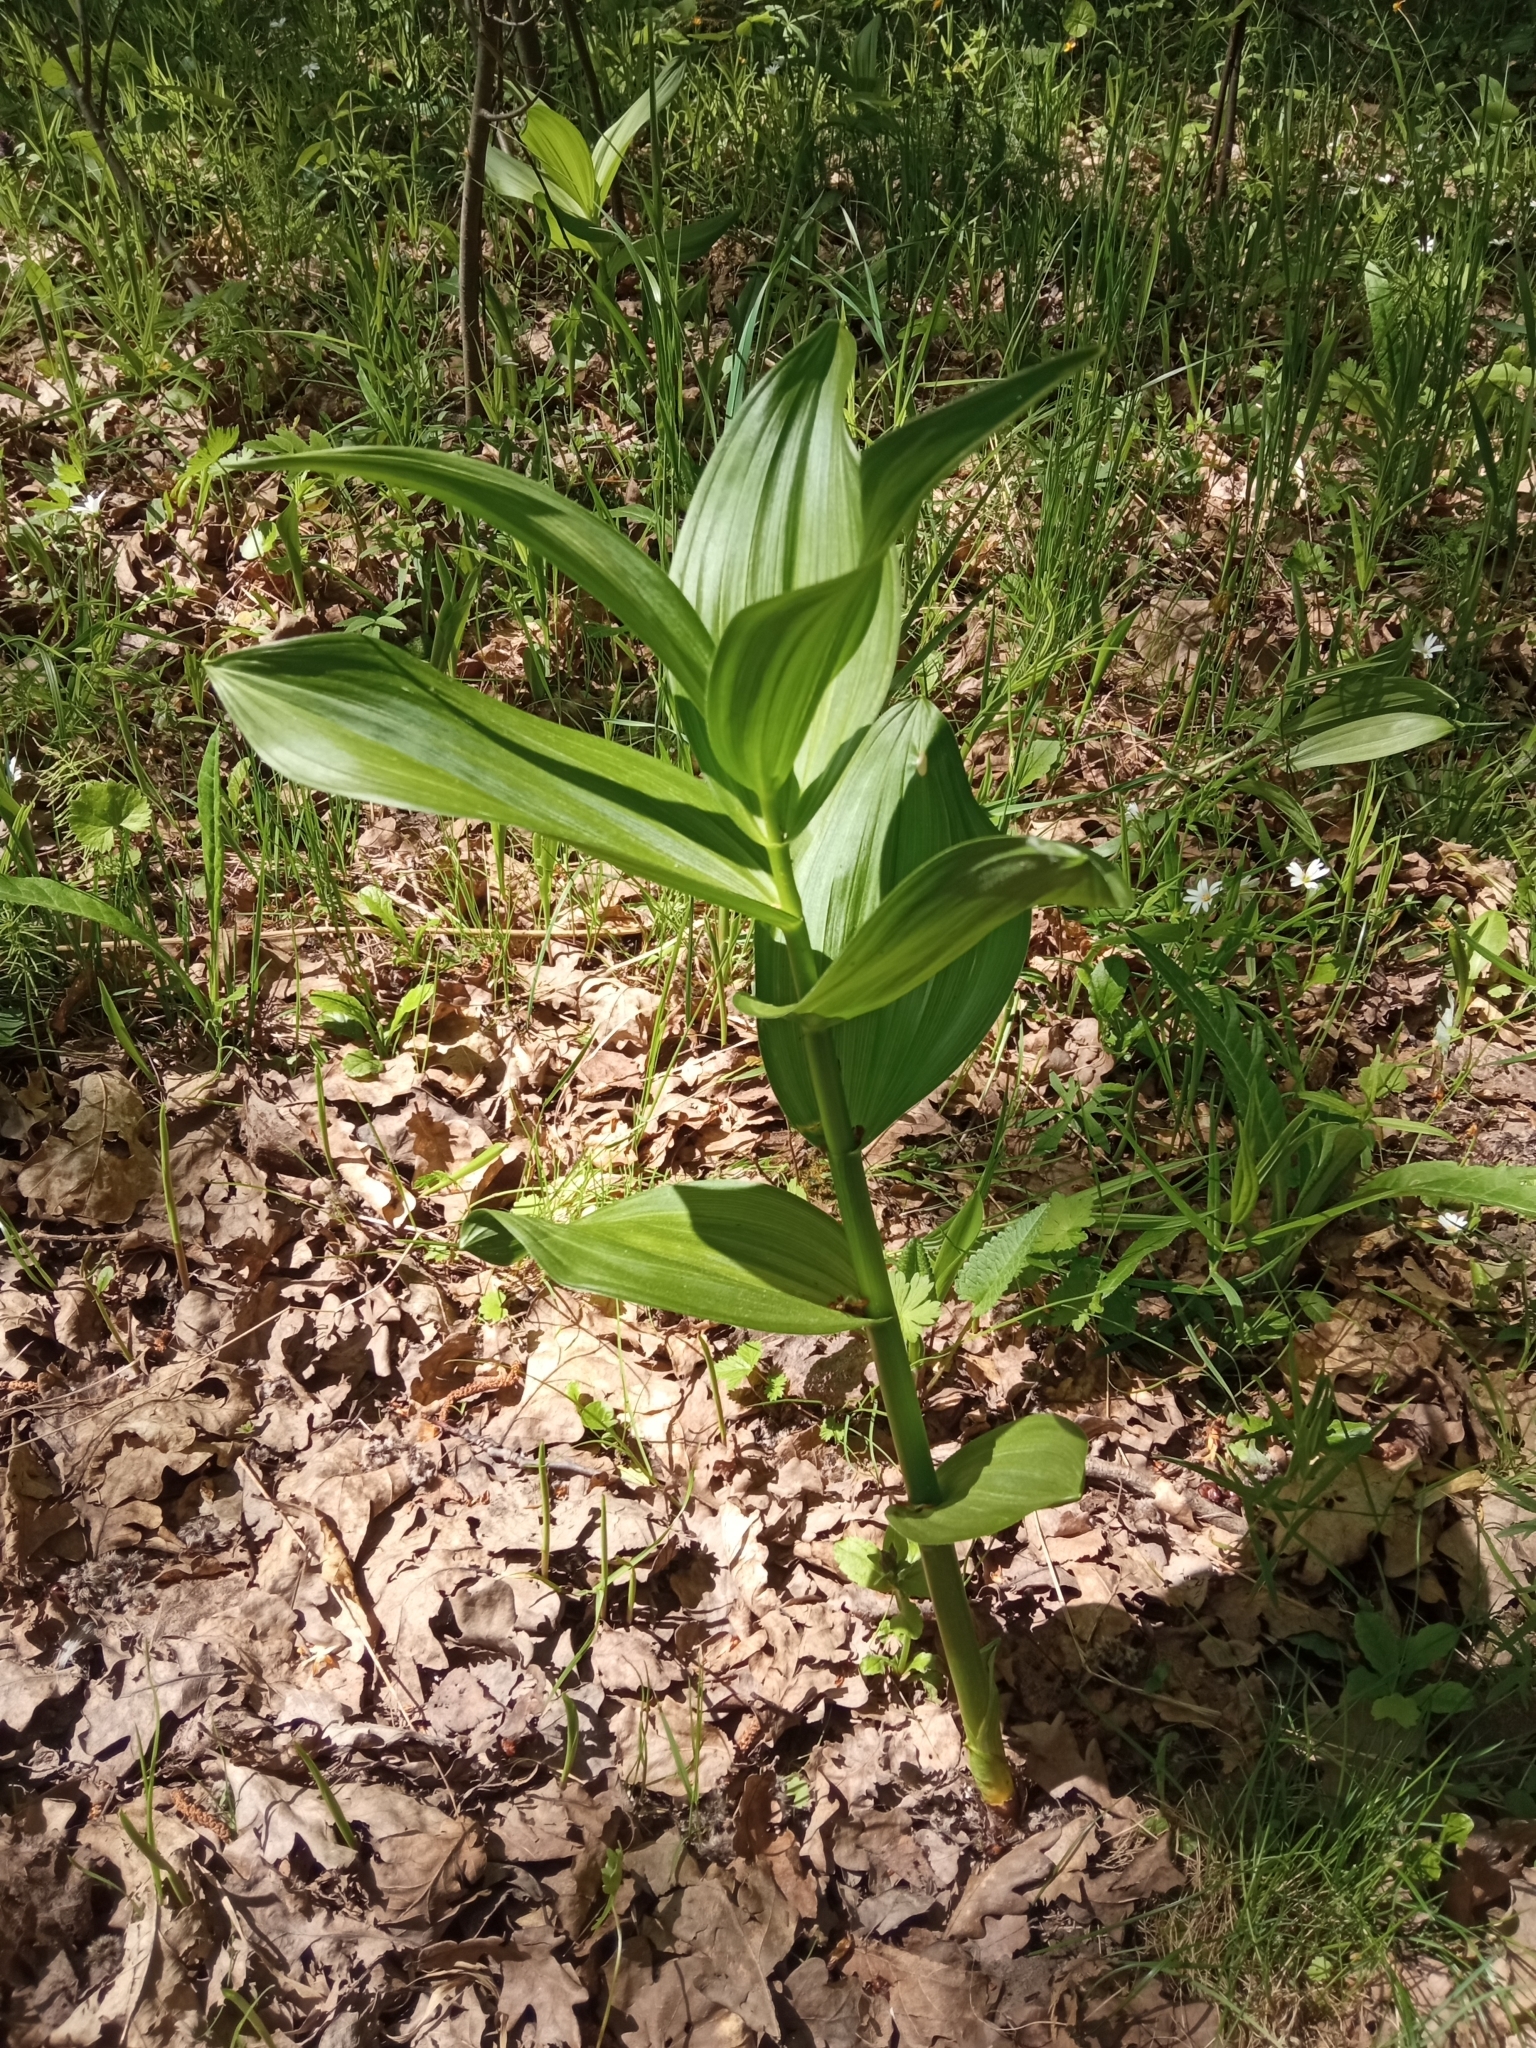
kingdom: Plantae
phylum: Tracheophyta
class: Liliopsida
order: Liliales
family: Melanthiaceae
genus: Veratrum
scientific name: Veratrum lobelianum
